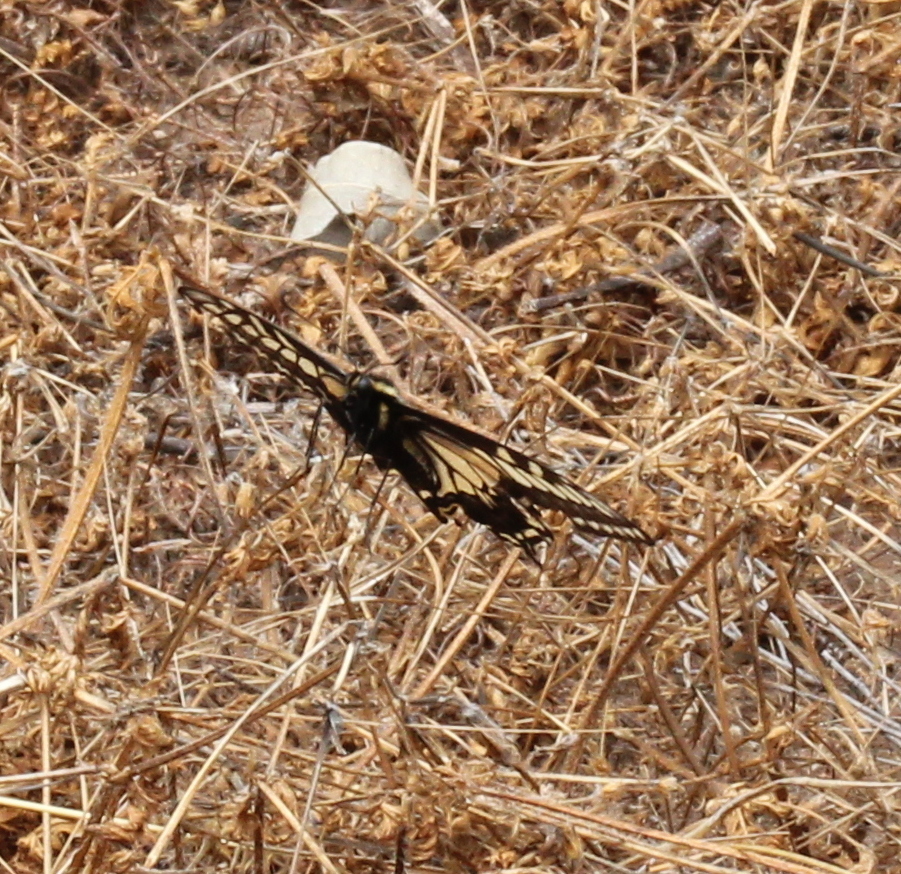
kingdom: Animalia
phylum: Arthropoda
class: Insecta
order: Lepidoptera
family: Papilionidae
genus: Papilio
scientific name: Papilio zelicaon
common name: Anise swallowtail
